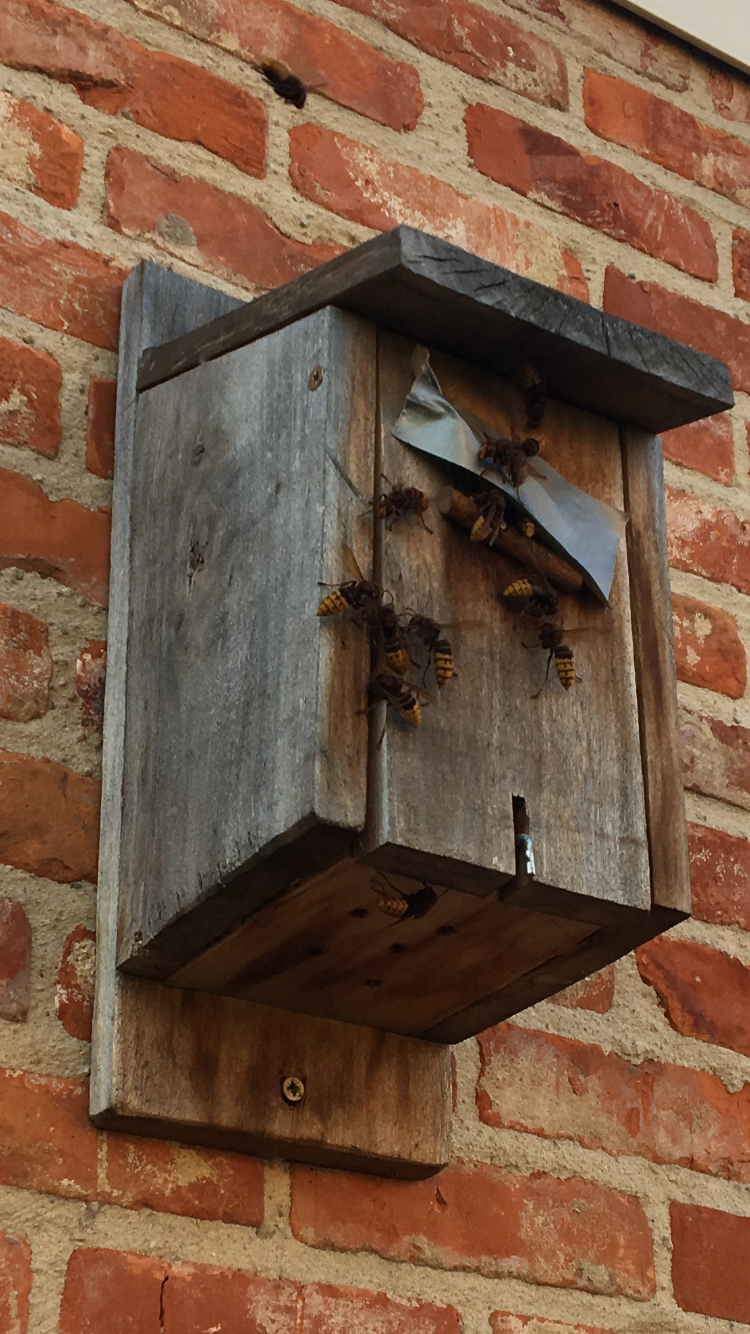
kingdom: Animalia
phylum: Arthropoda
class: Insecta
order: Hymenoptera
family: Vespidae
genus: Vespa
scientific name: Vespa crabro
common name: Hornet
